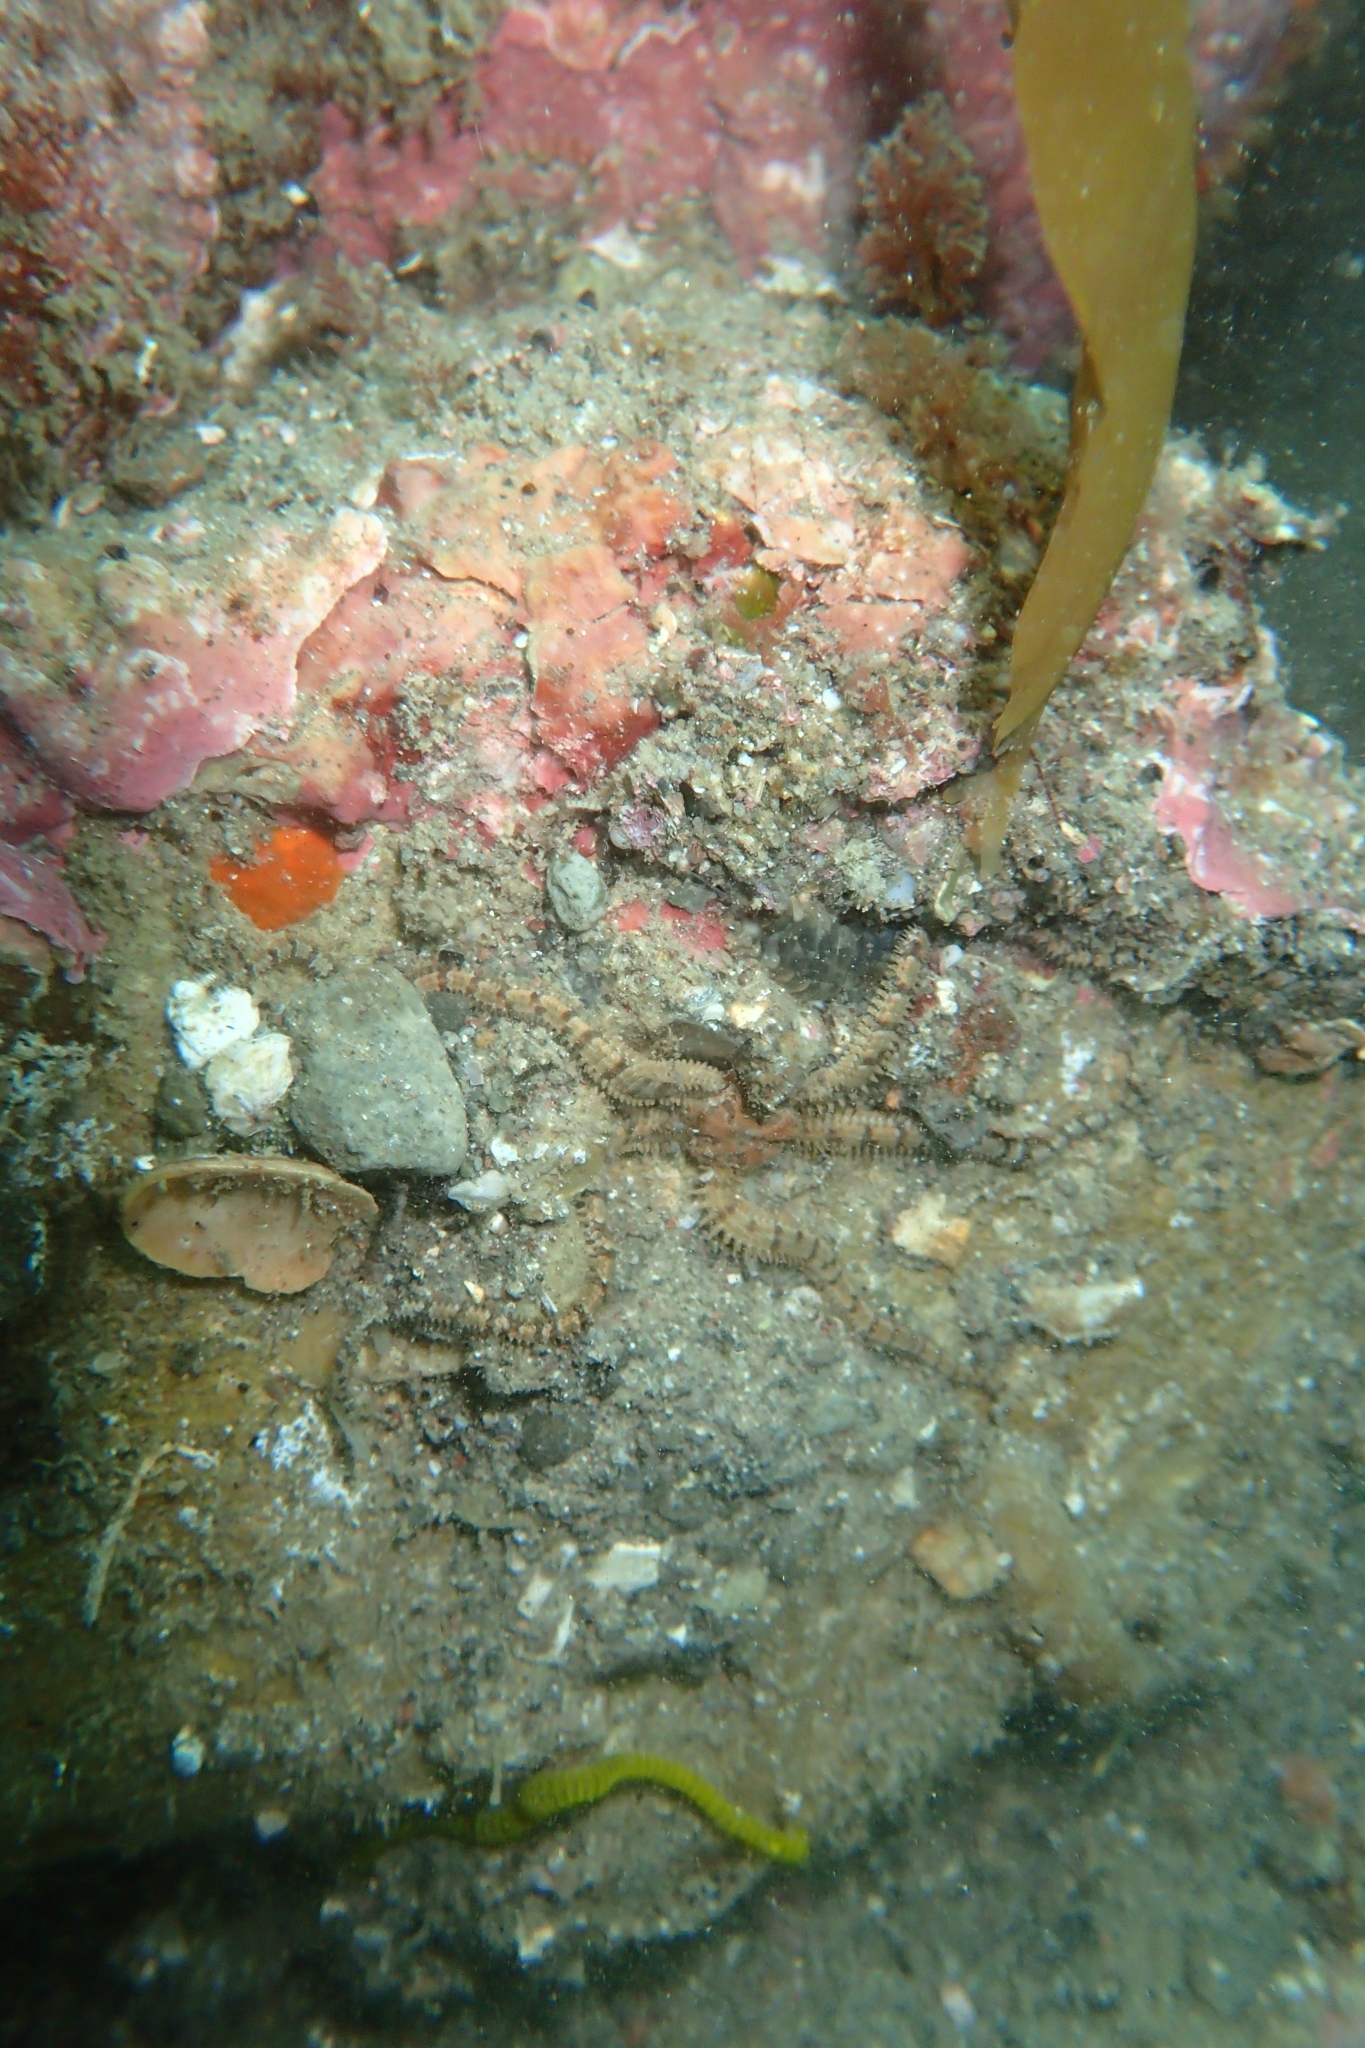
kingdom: Animalia
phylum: Echinodermata
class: Ophiuroidea
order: Amphilepidida
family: Ophiactidae
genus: Ophiactis
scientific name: Ophiactis resiliens
